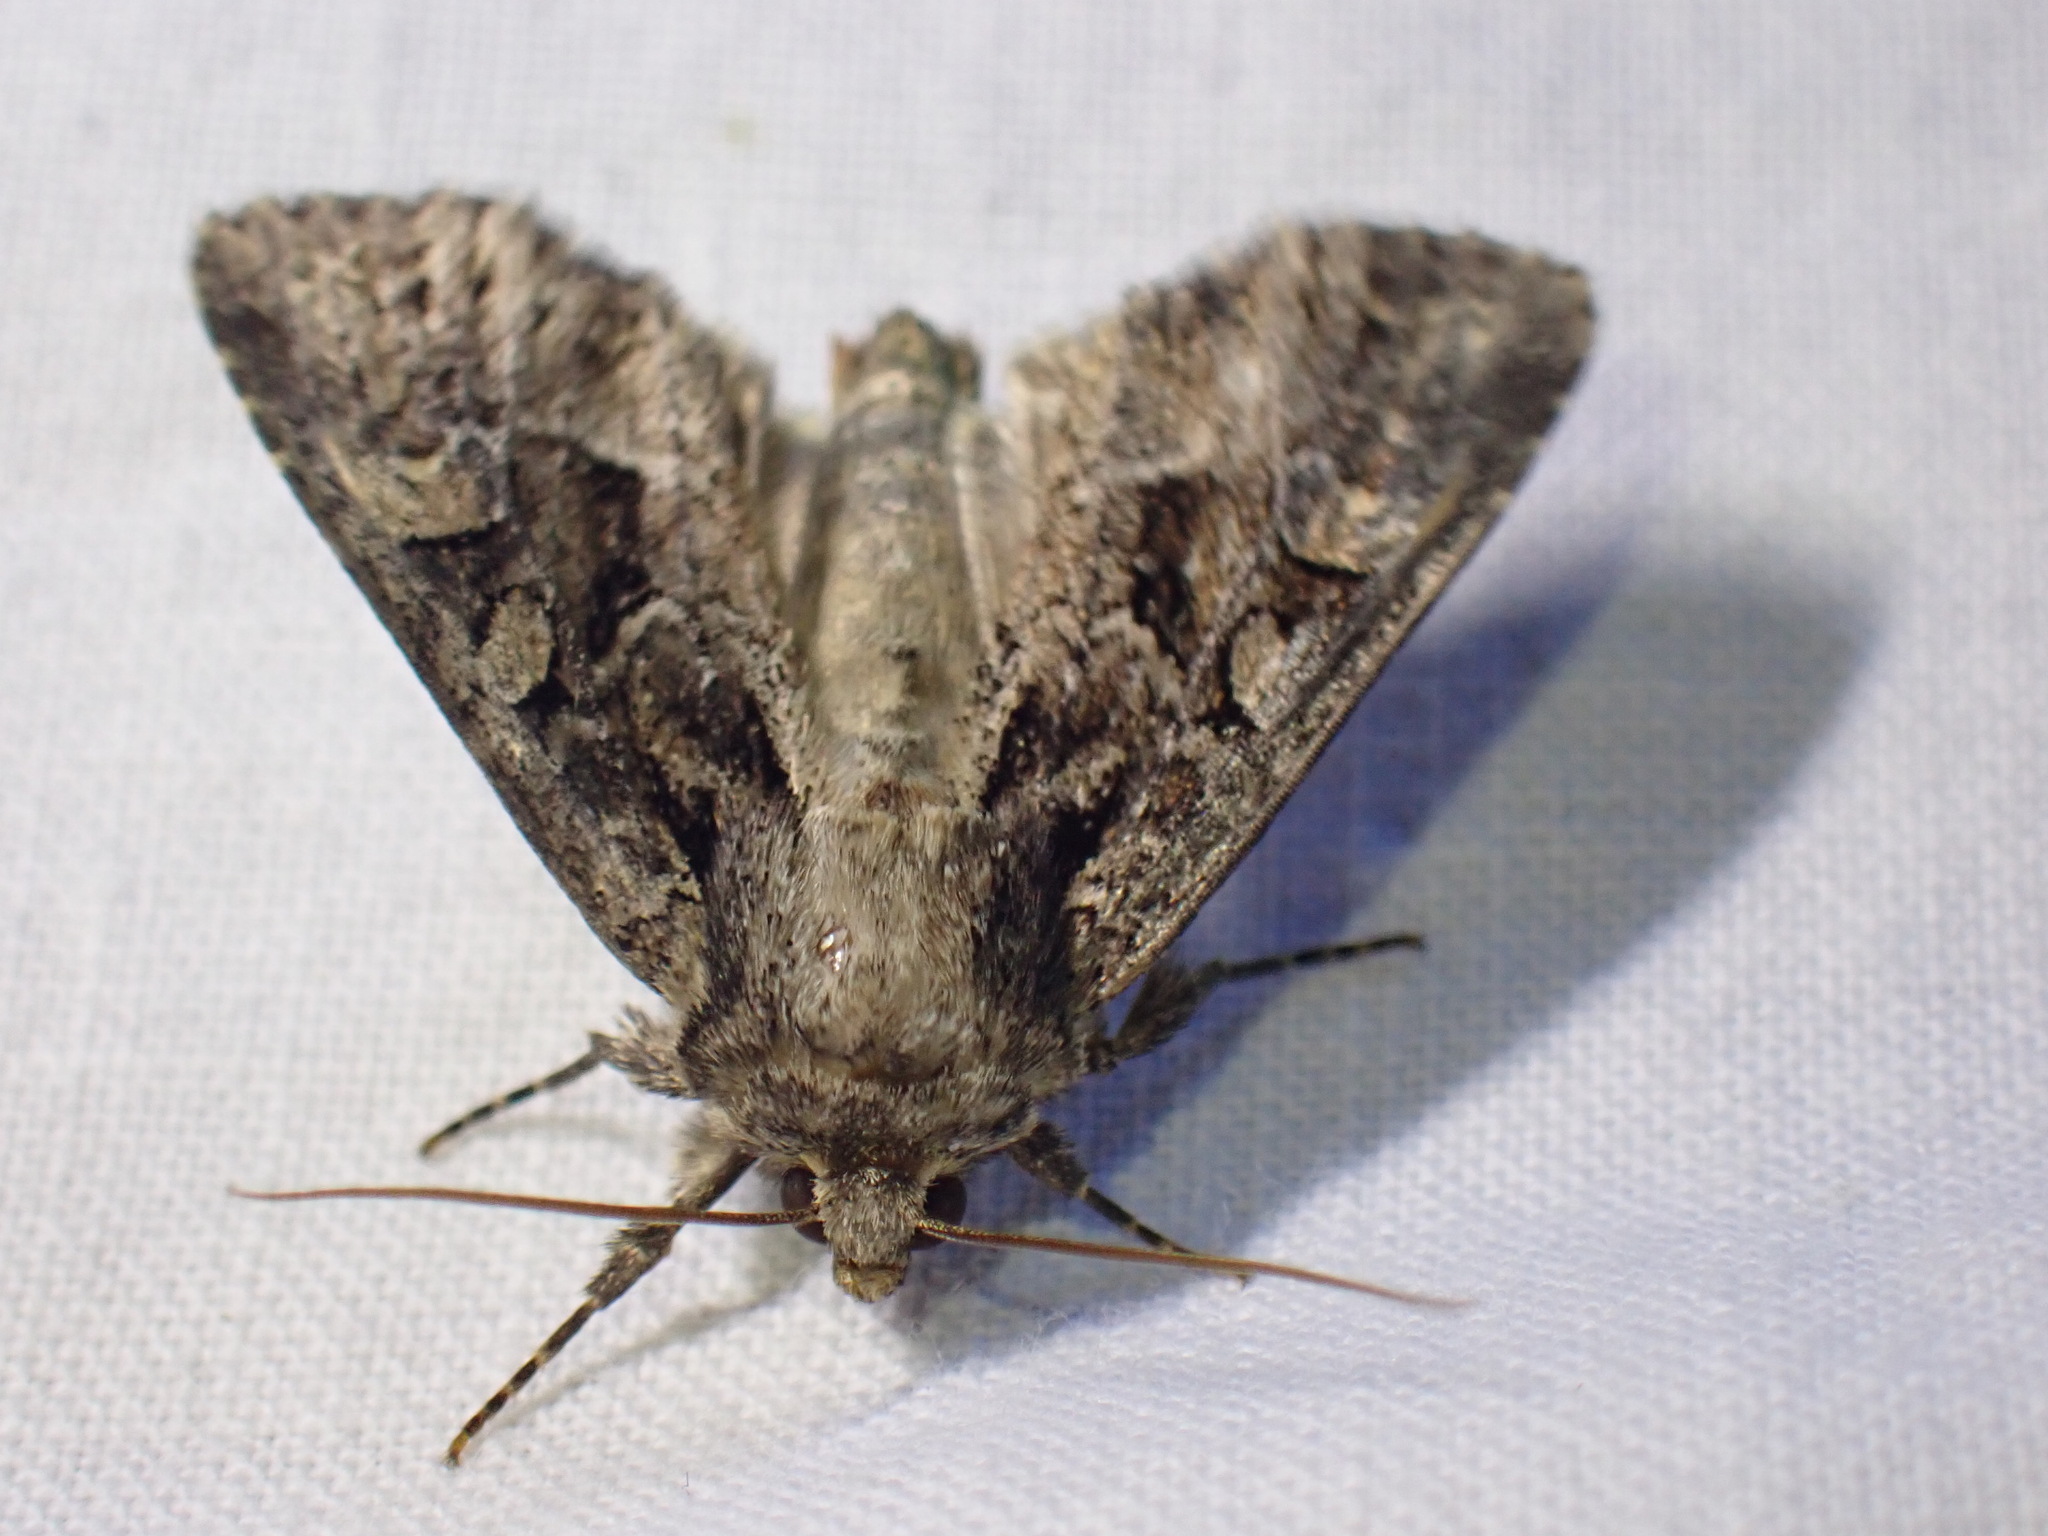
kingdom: Animalia
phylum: Arthropoda
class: Insecta
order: Lepidoptera
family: Noctuidae
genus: Apamea
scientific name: Apamea remissa
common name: Dusky brocade
